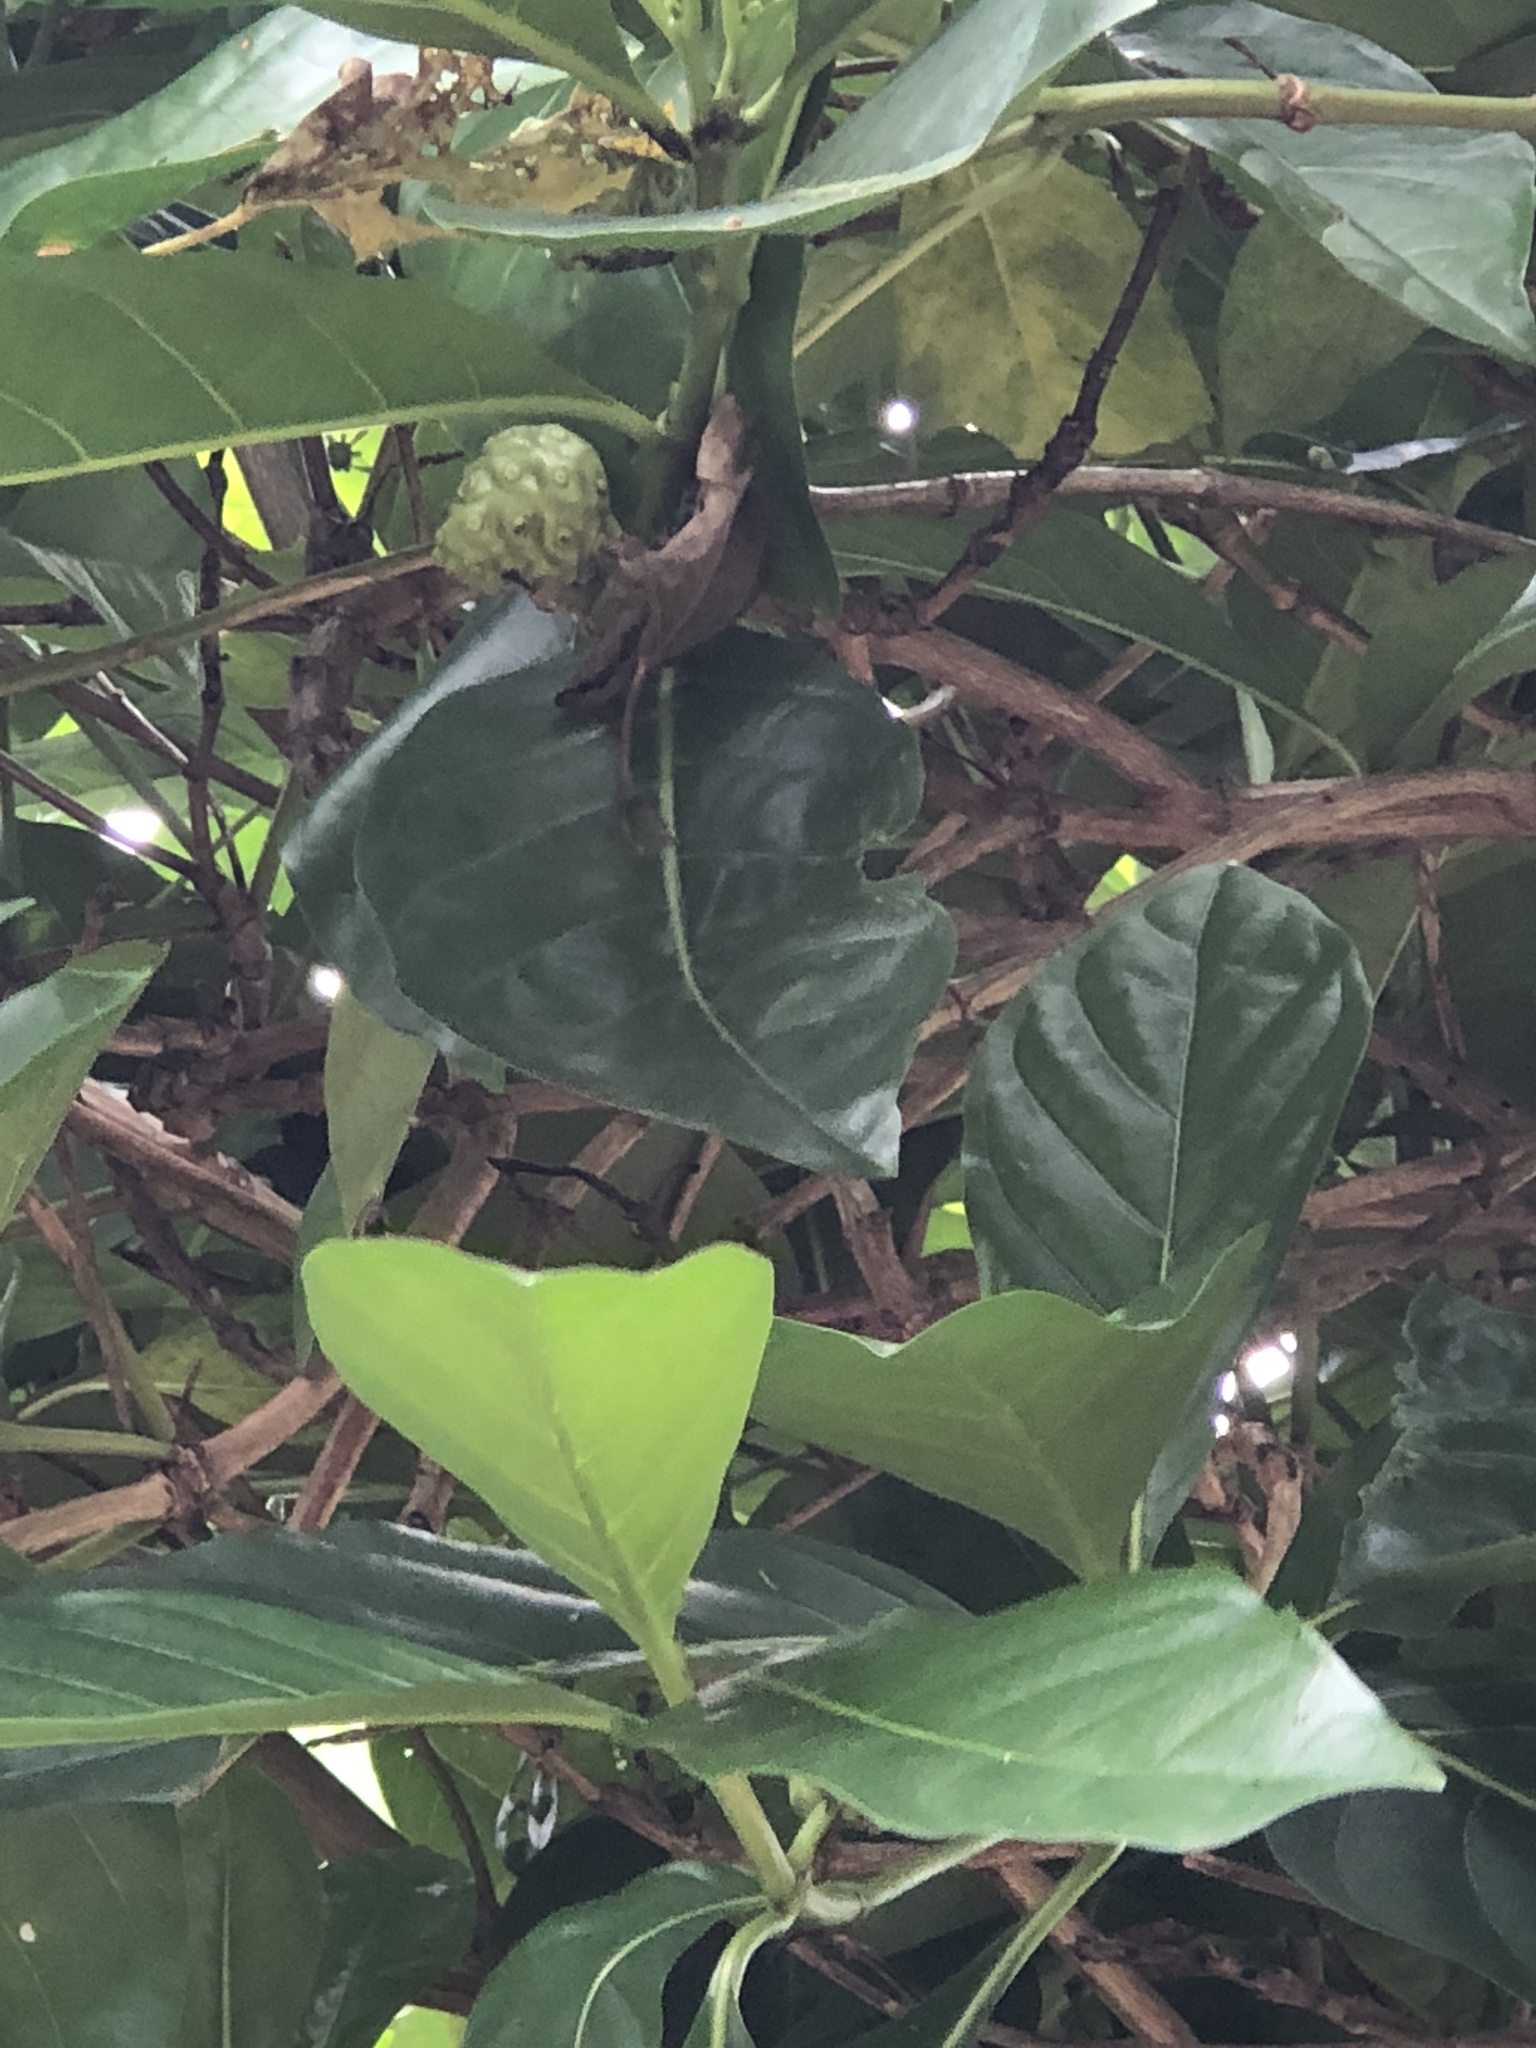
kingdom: Plantae
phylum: Tracheophyta
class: Magnoliopsida
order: Gentianales
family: Rubiaceae
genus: Morinda
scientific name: Morinda citrifolia
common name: Indian-mulberry
